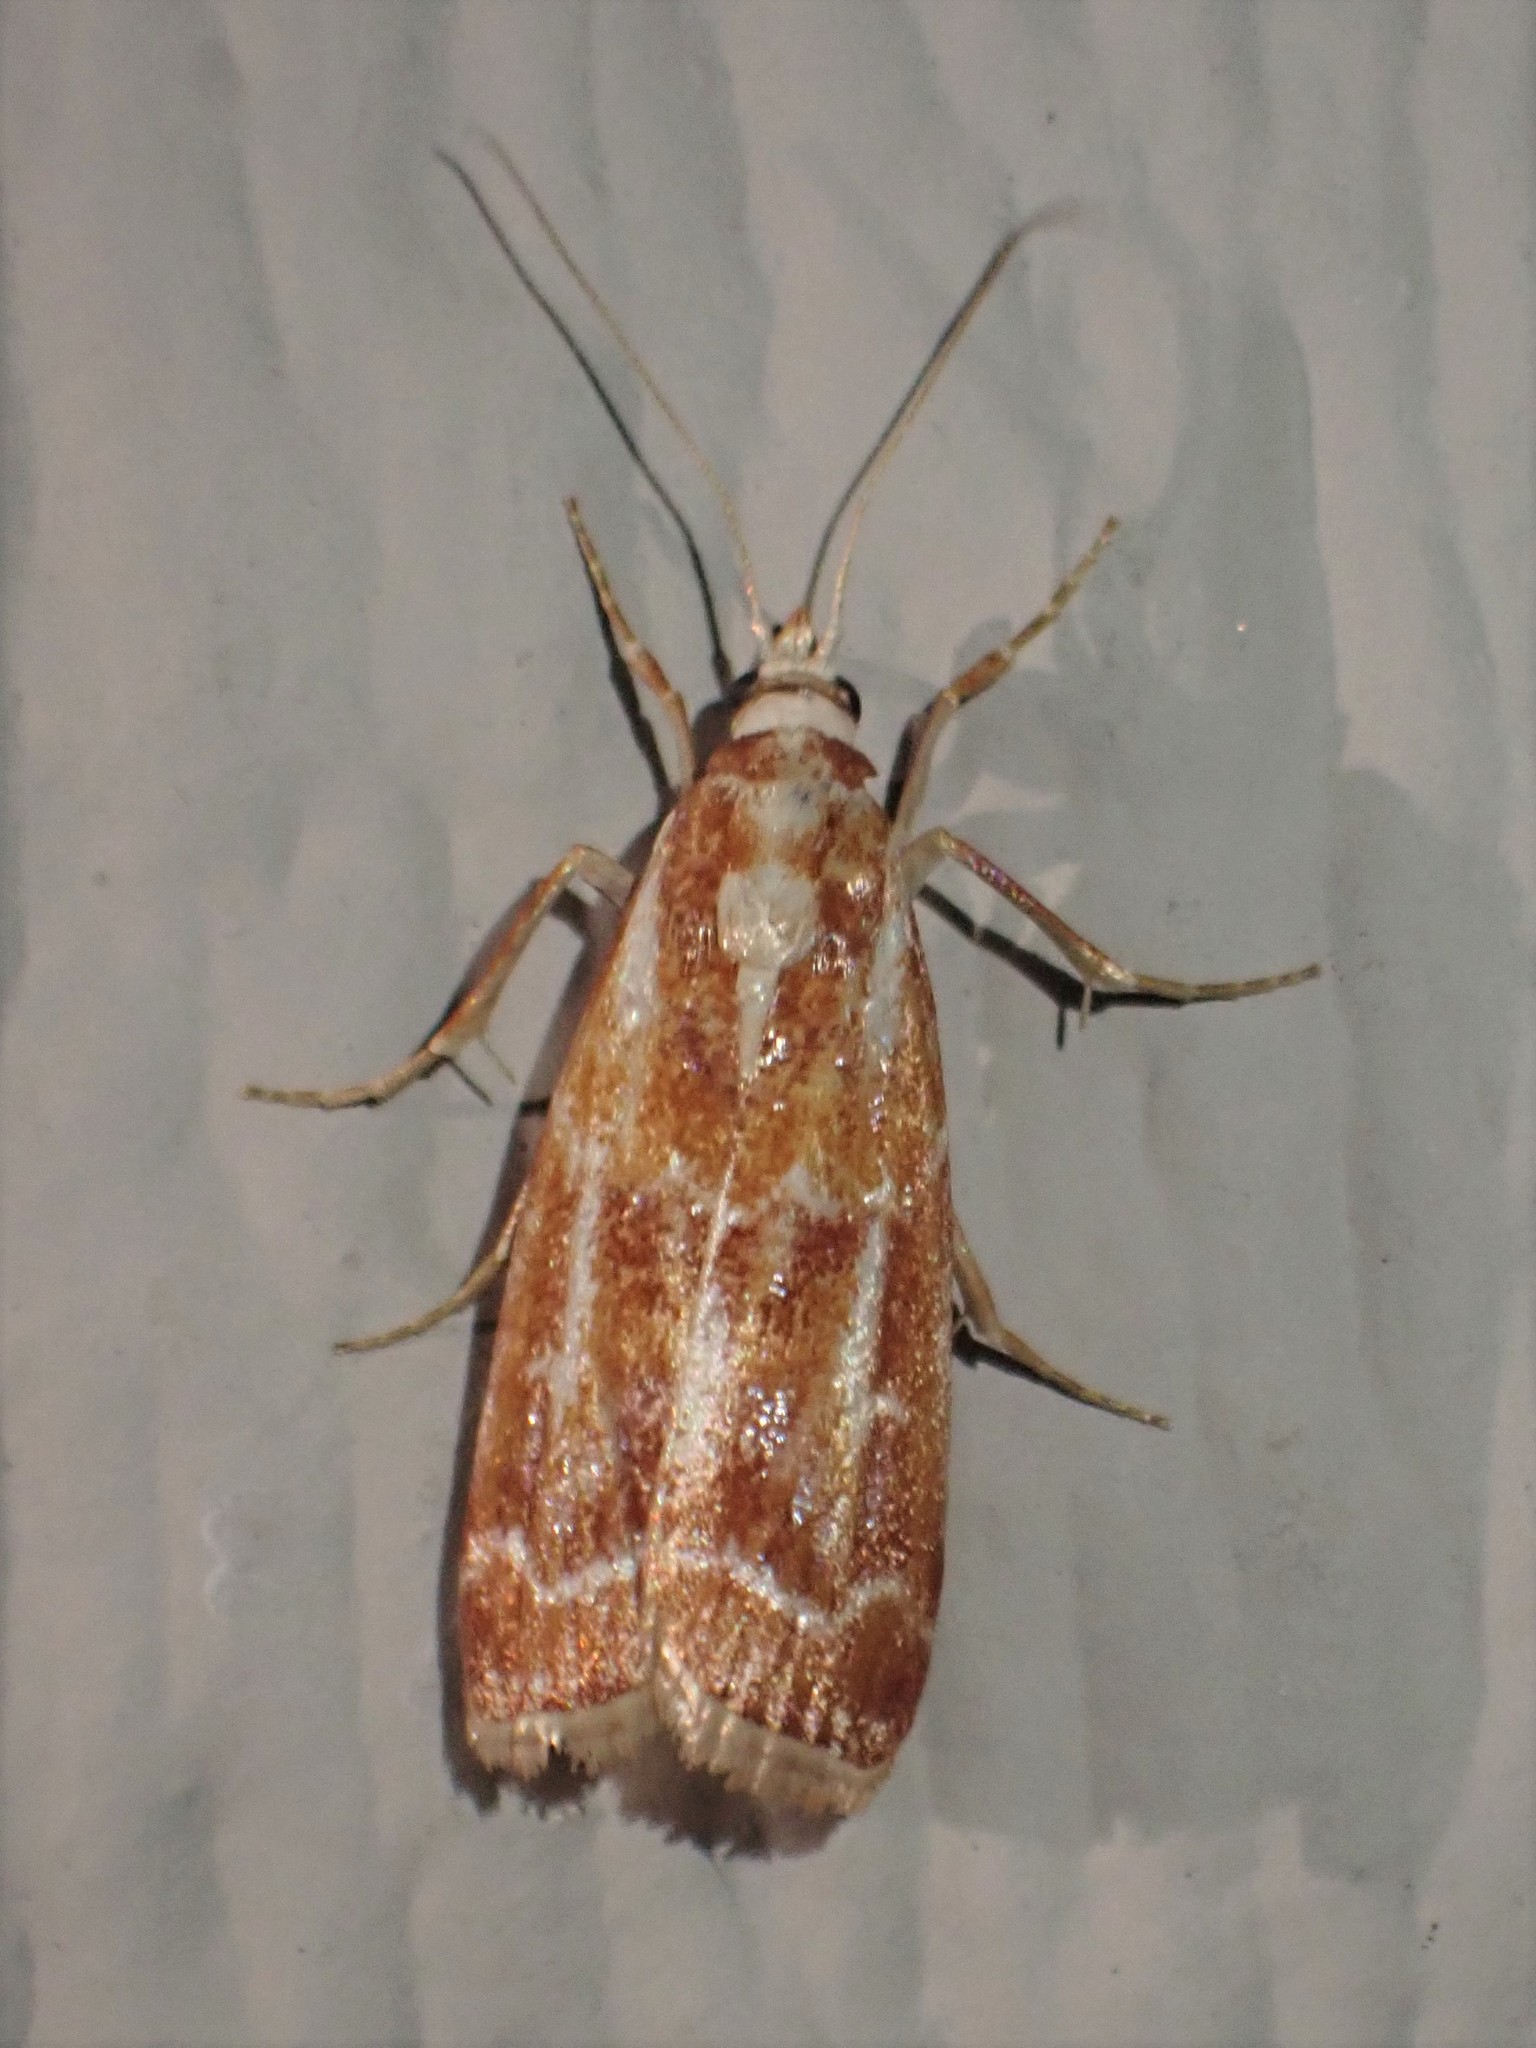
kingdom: Animalia
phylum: Arthropoda
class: Insecta
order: Lepidoptera
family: Pyralidae
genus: Dioryctria
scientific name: Dioryctria auranticella
